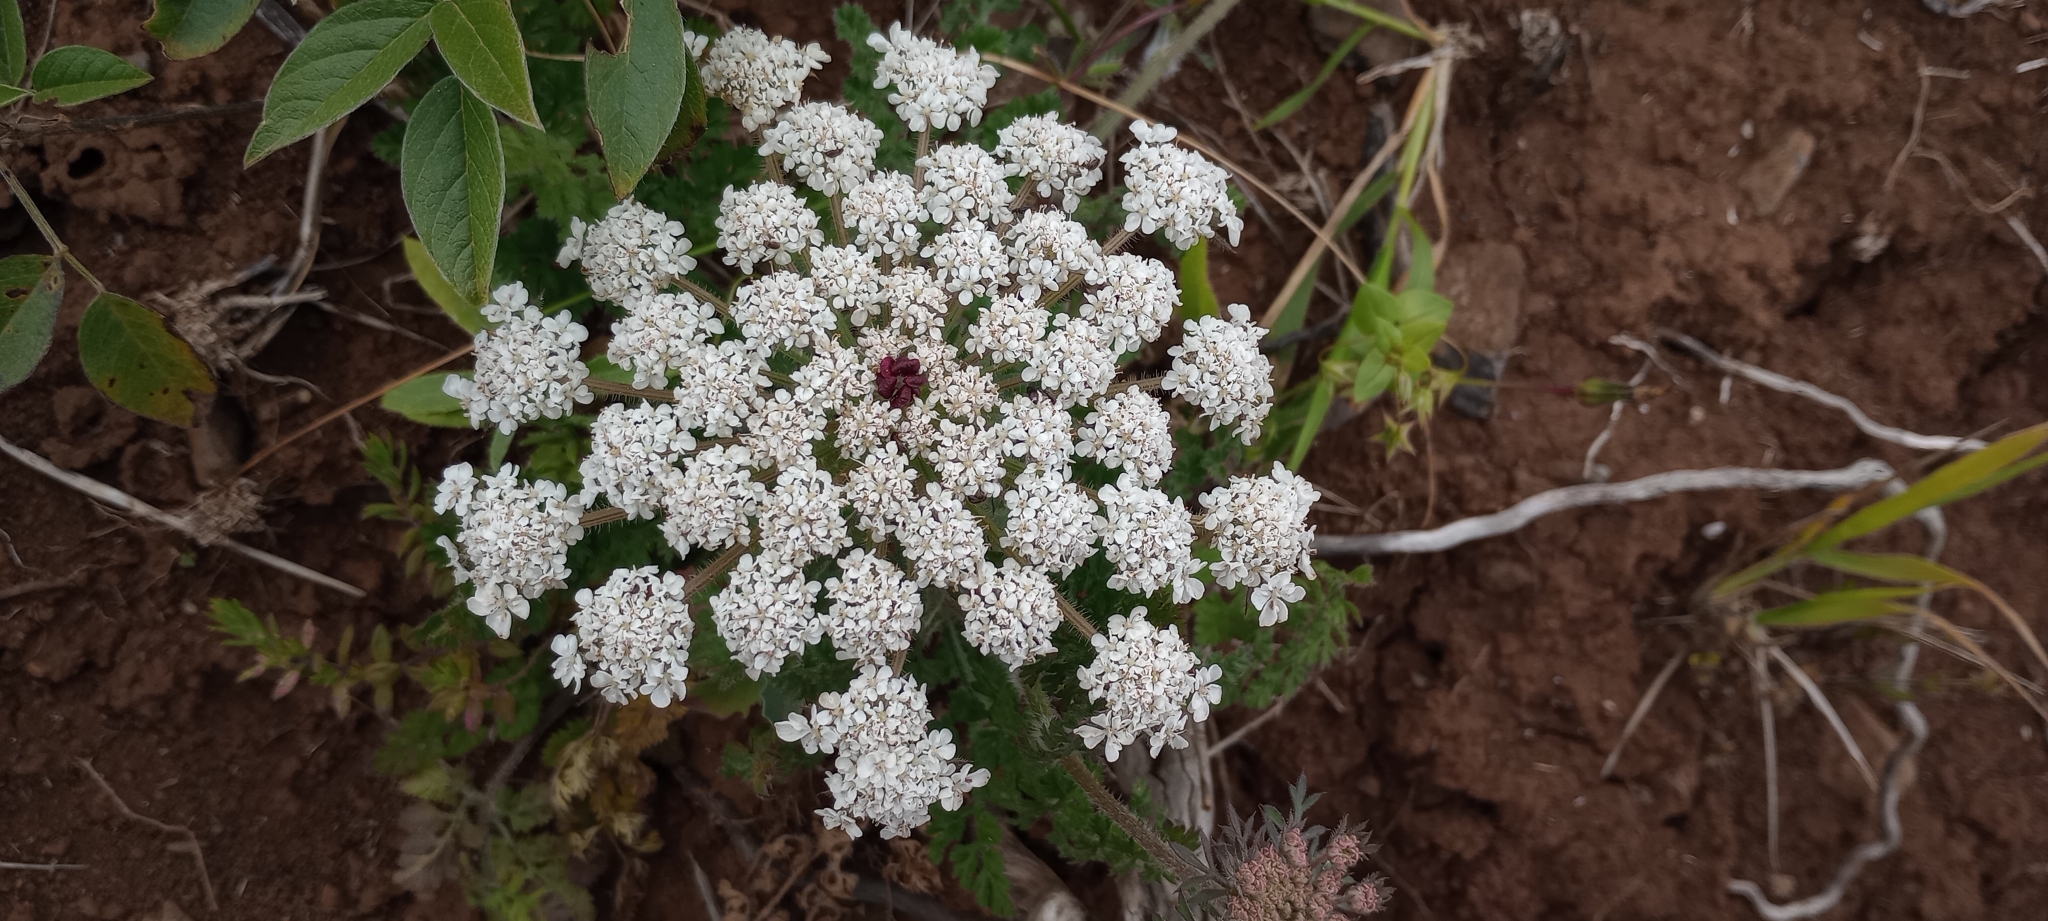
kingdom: Plantae
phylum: Tracheophyta
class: Magnoliopsida
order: Apiales
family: Apiaceae
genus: Daucus
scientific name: Daucus carota
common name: Wild carrot
